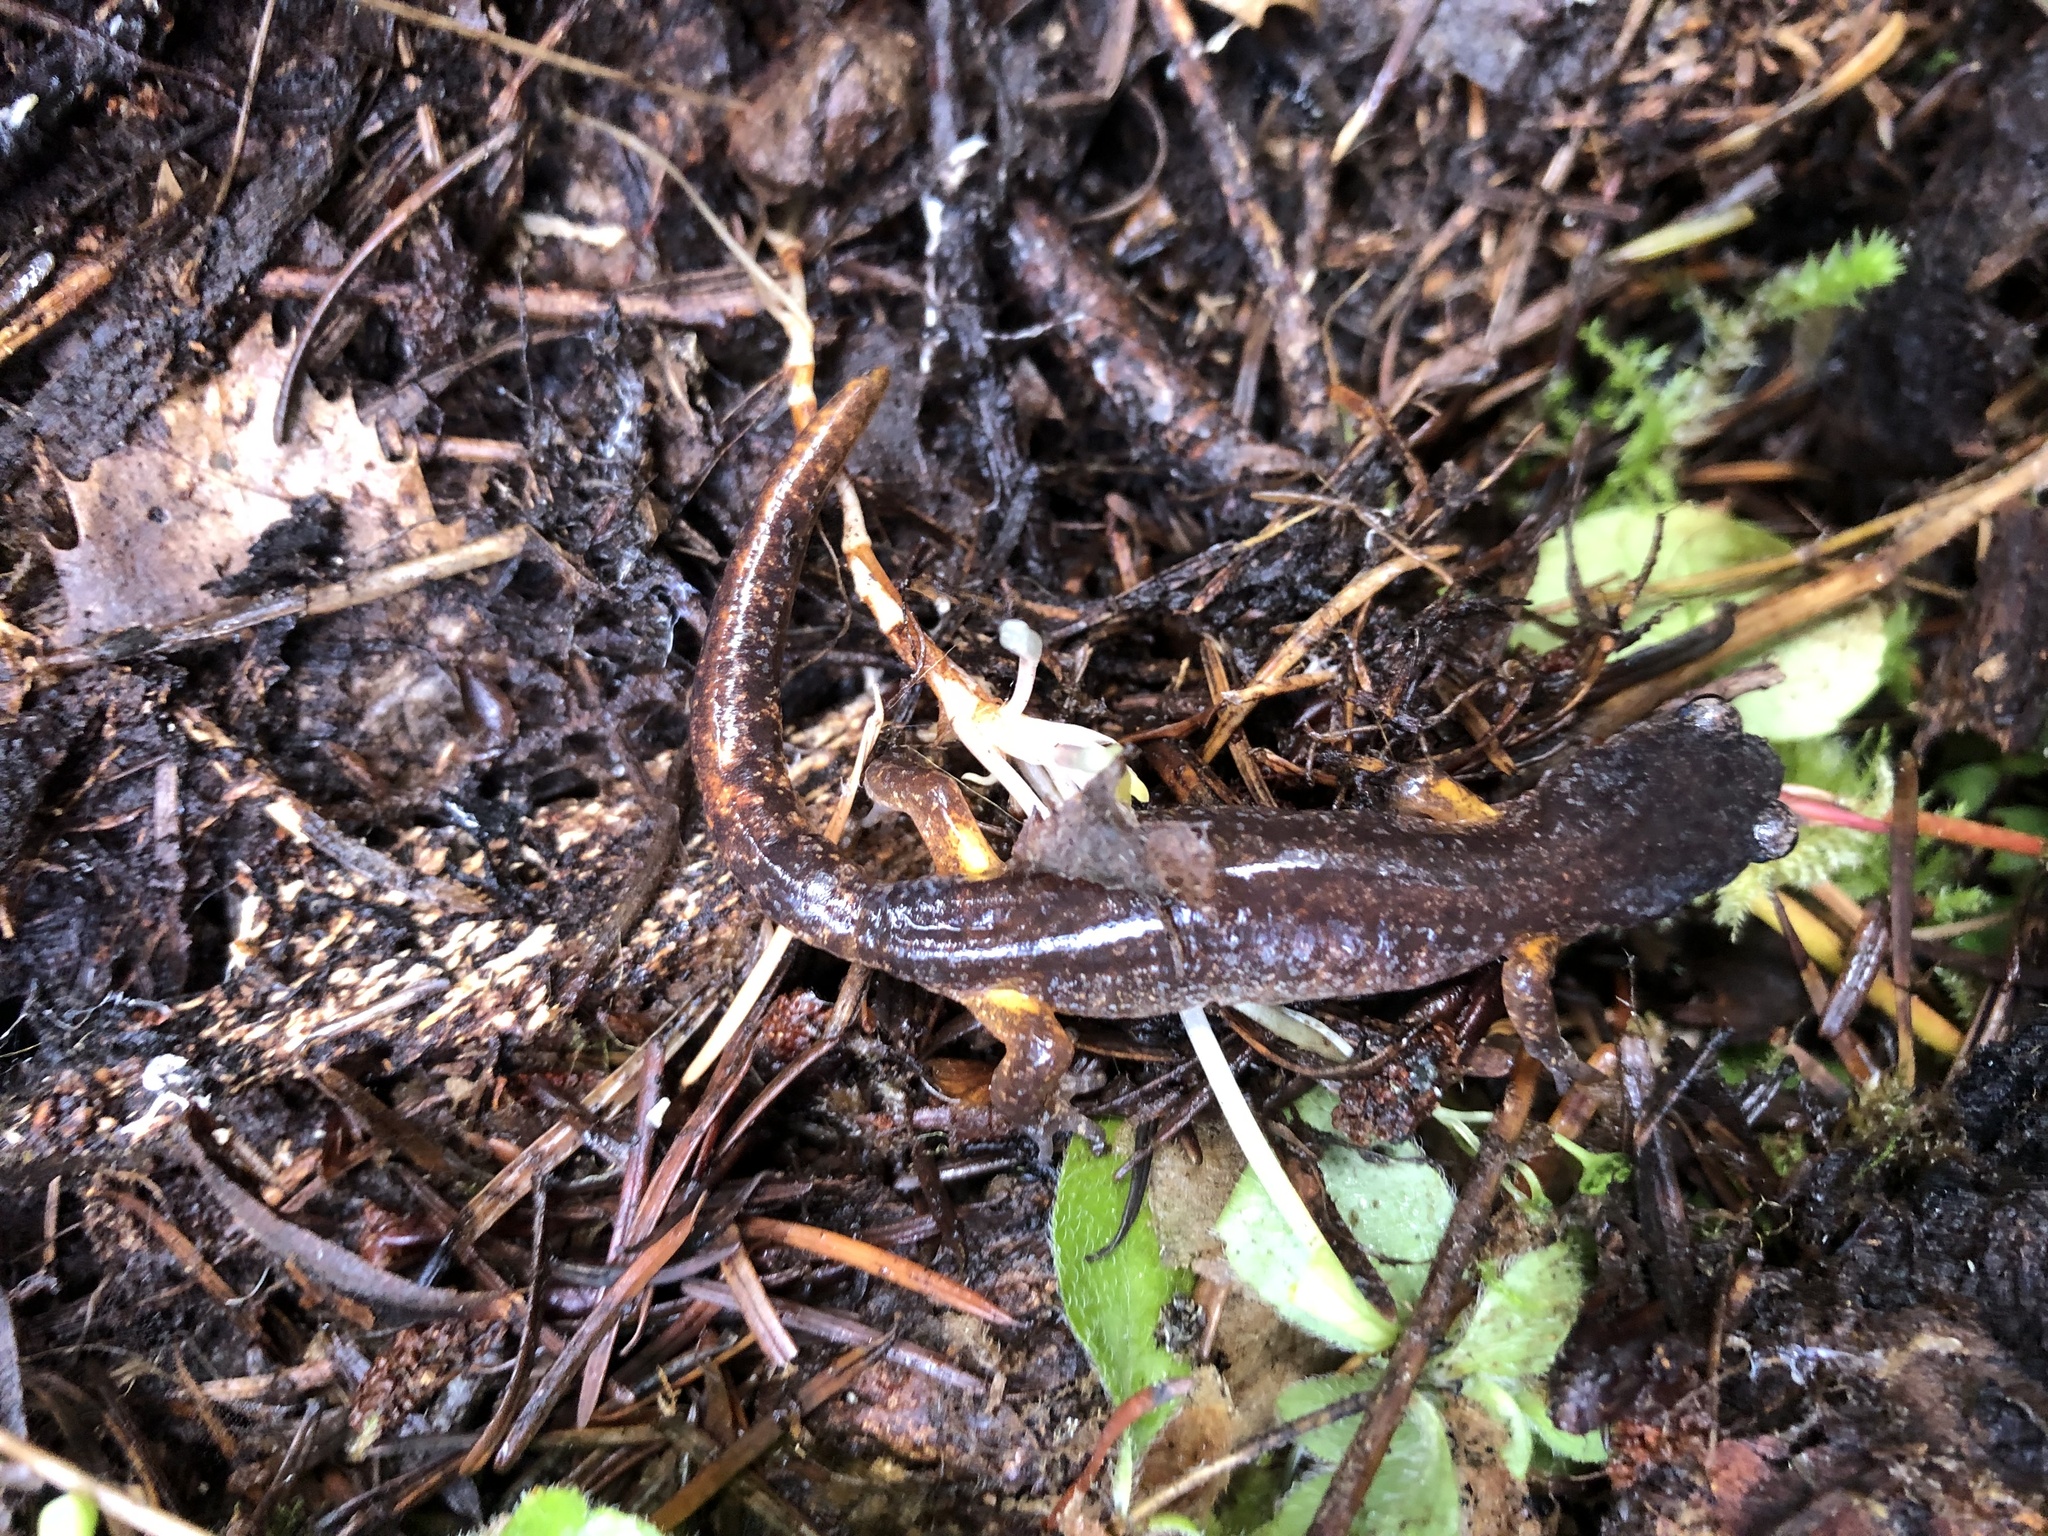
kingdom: Animalia
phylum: Chordata
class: Amphibia
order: Caudata
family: Plethodontidae
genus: Ensatina
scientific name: Ensatina eschscholtzii
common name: Ensatina
